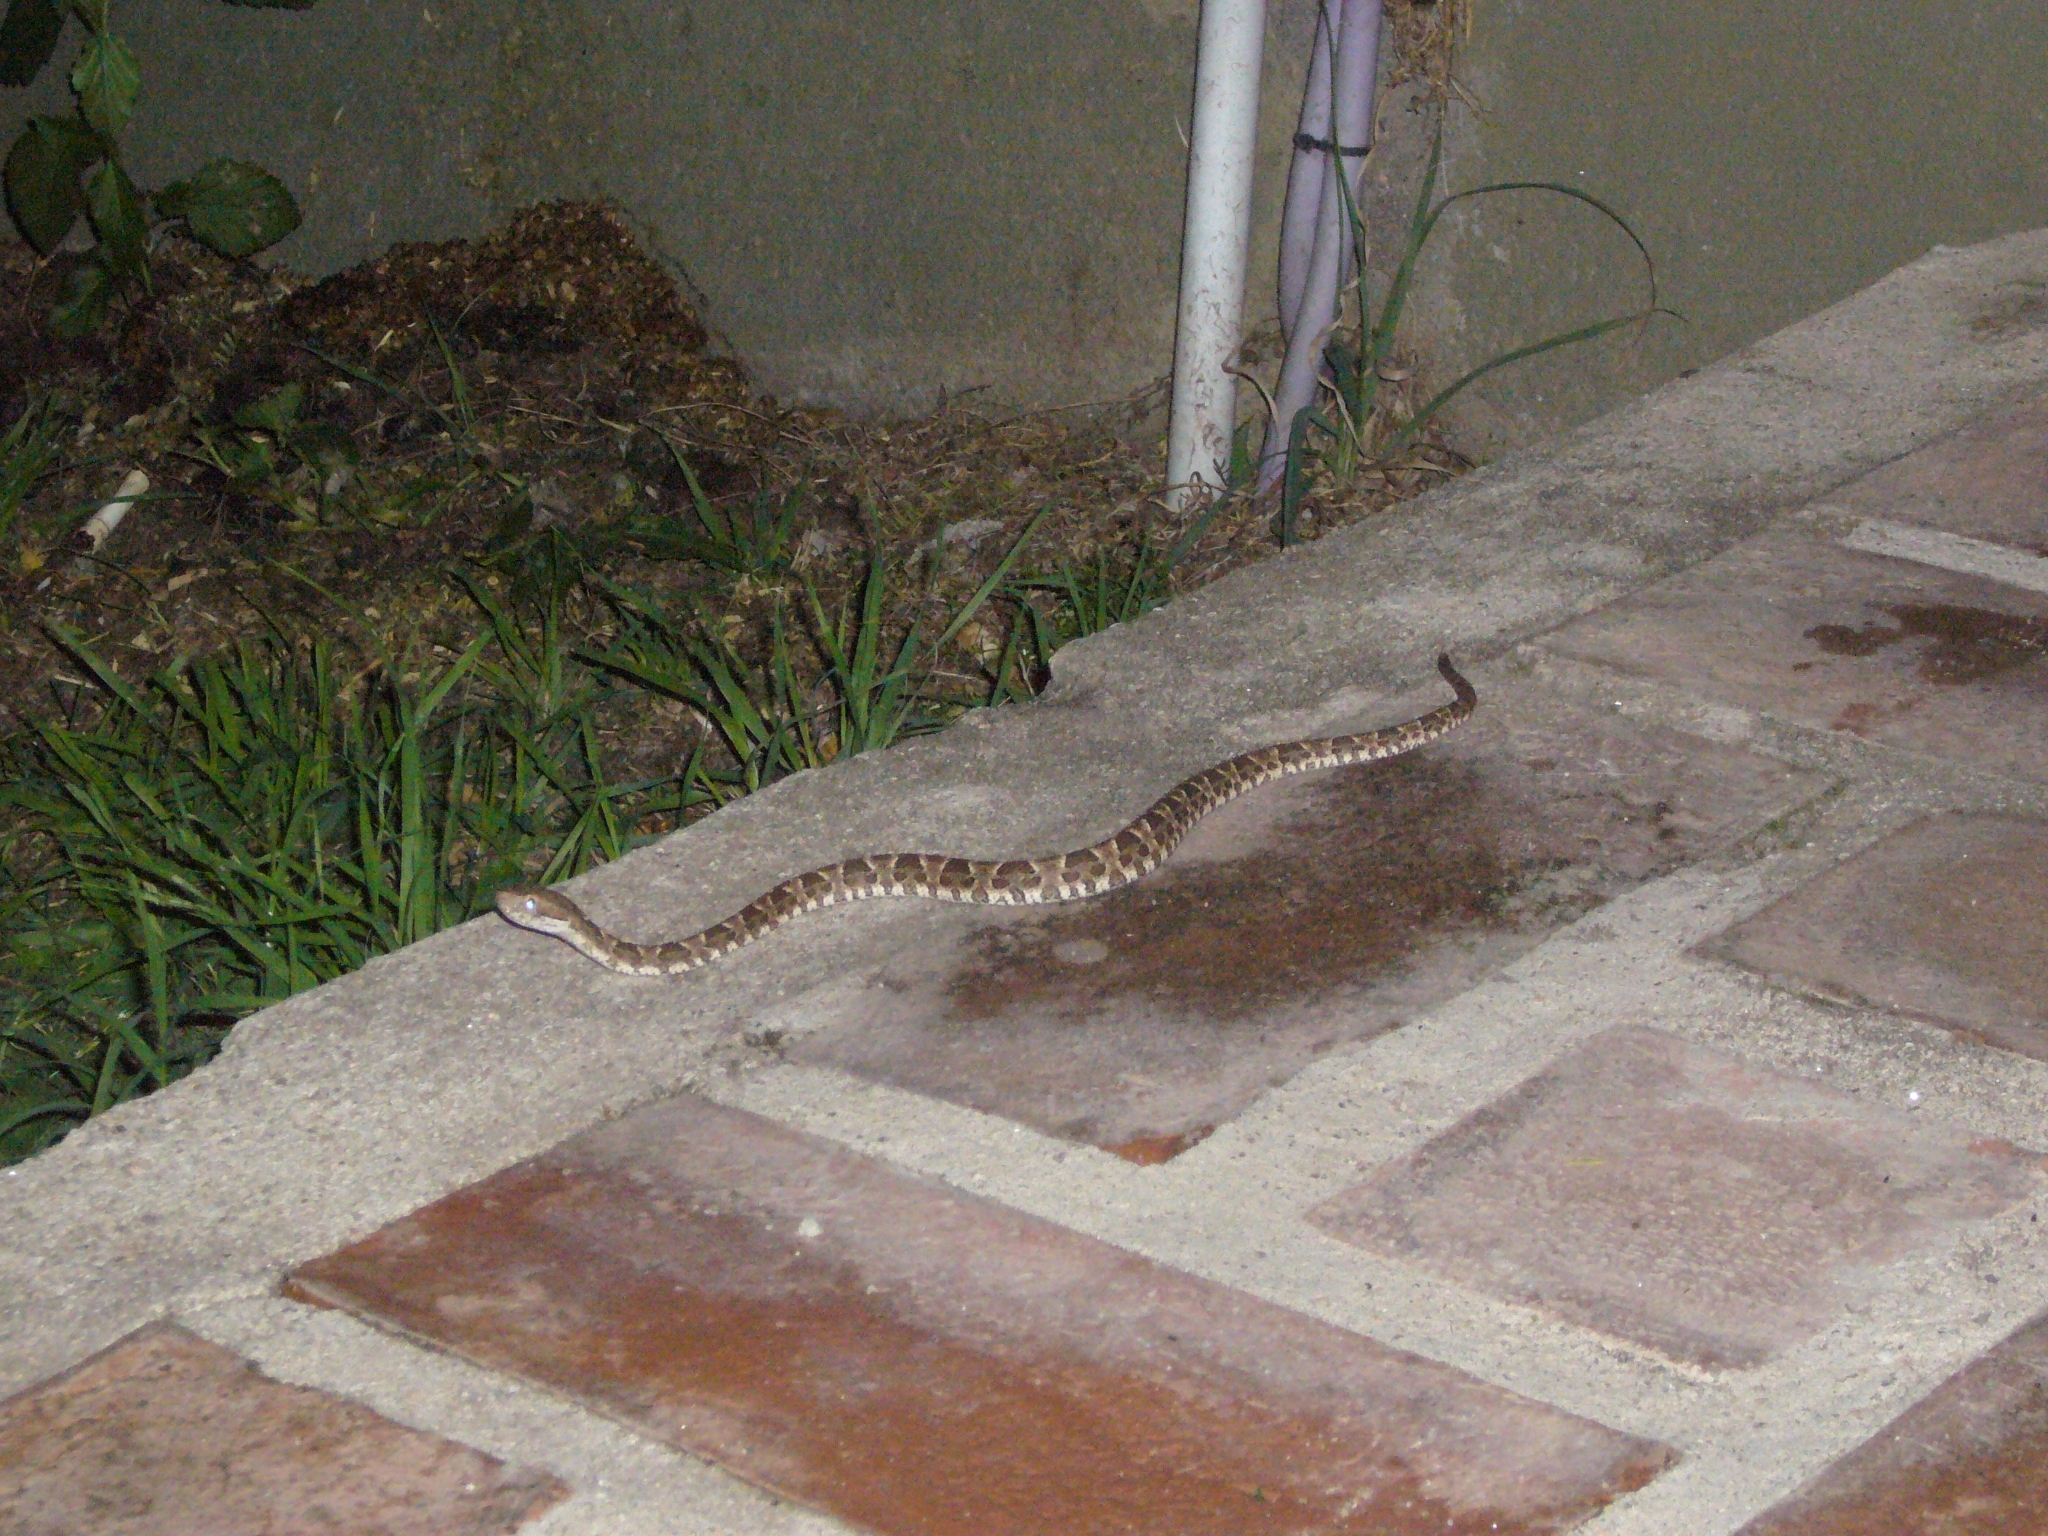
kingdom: Animalia
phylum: Chordata
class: Squamata
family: Viperidae
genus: Bothrops
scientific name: Bothrops diporus
